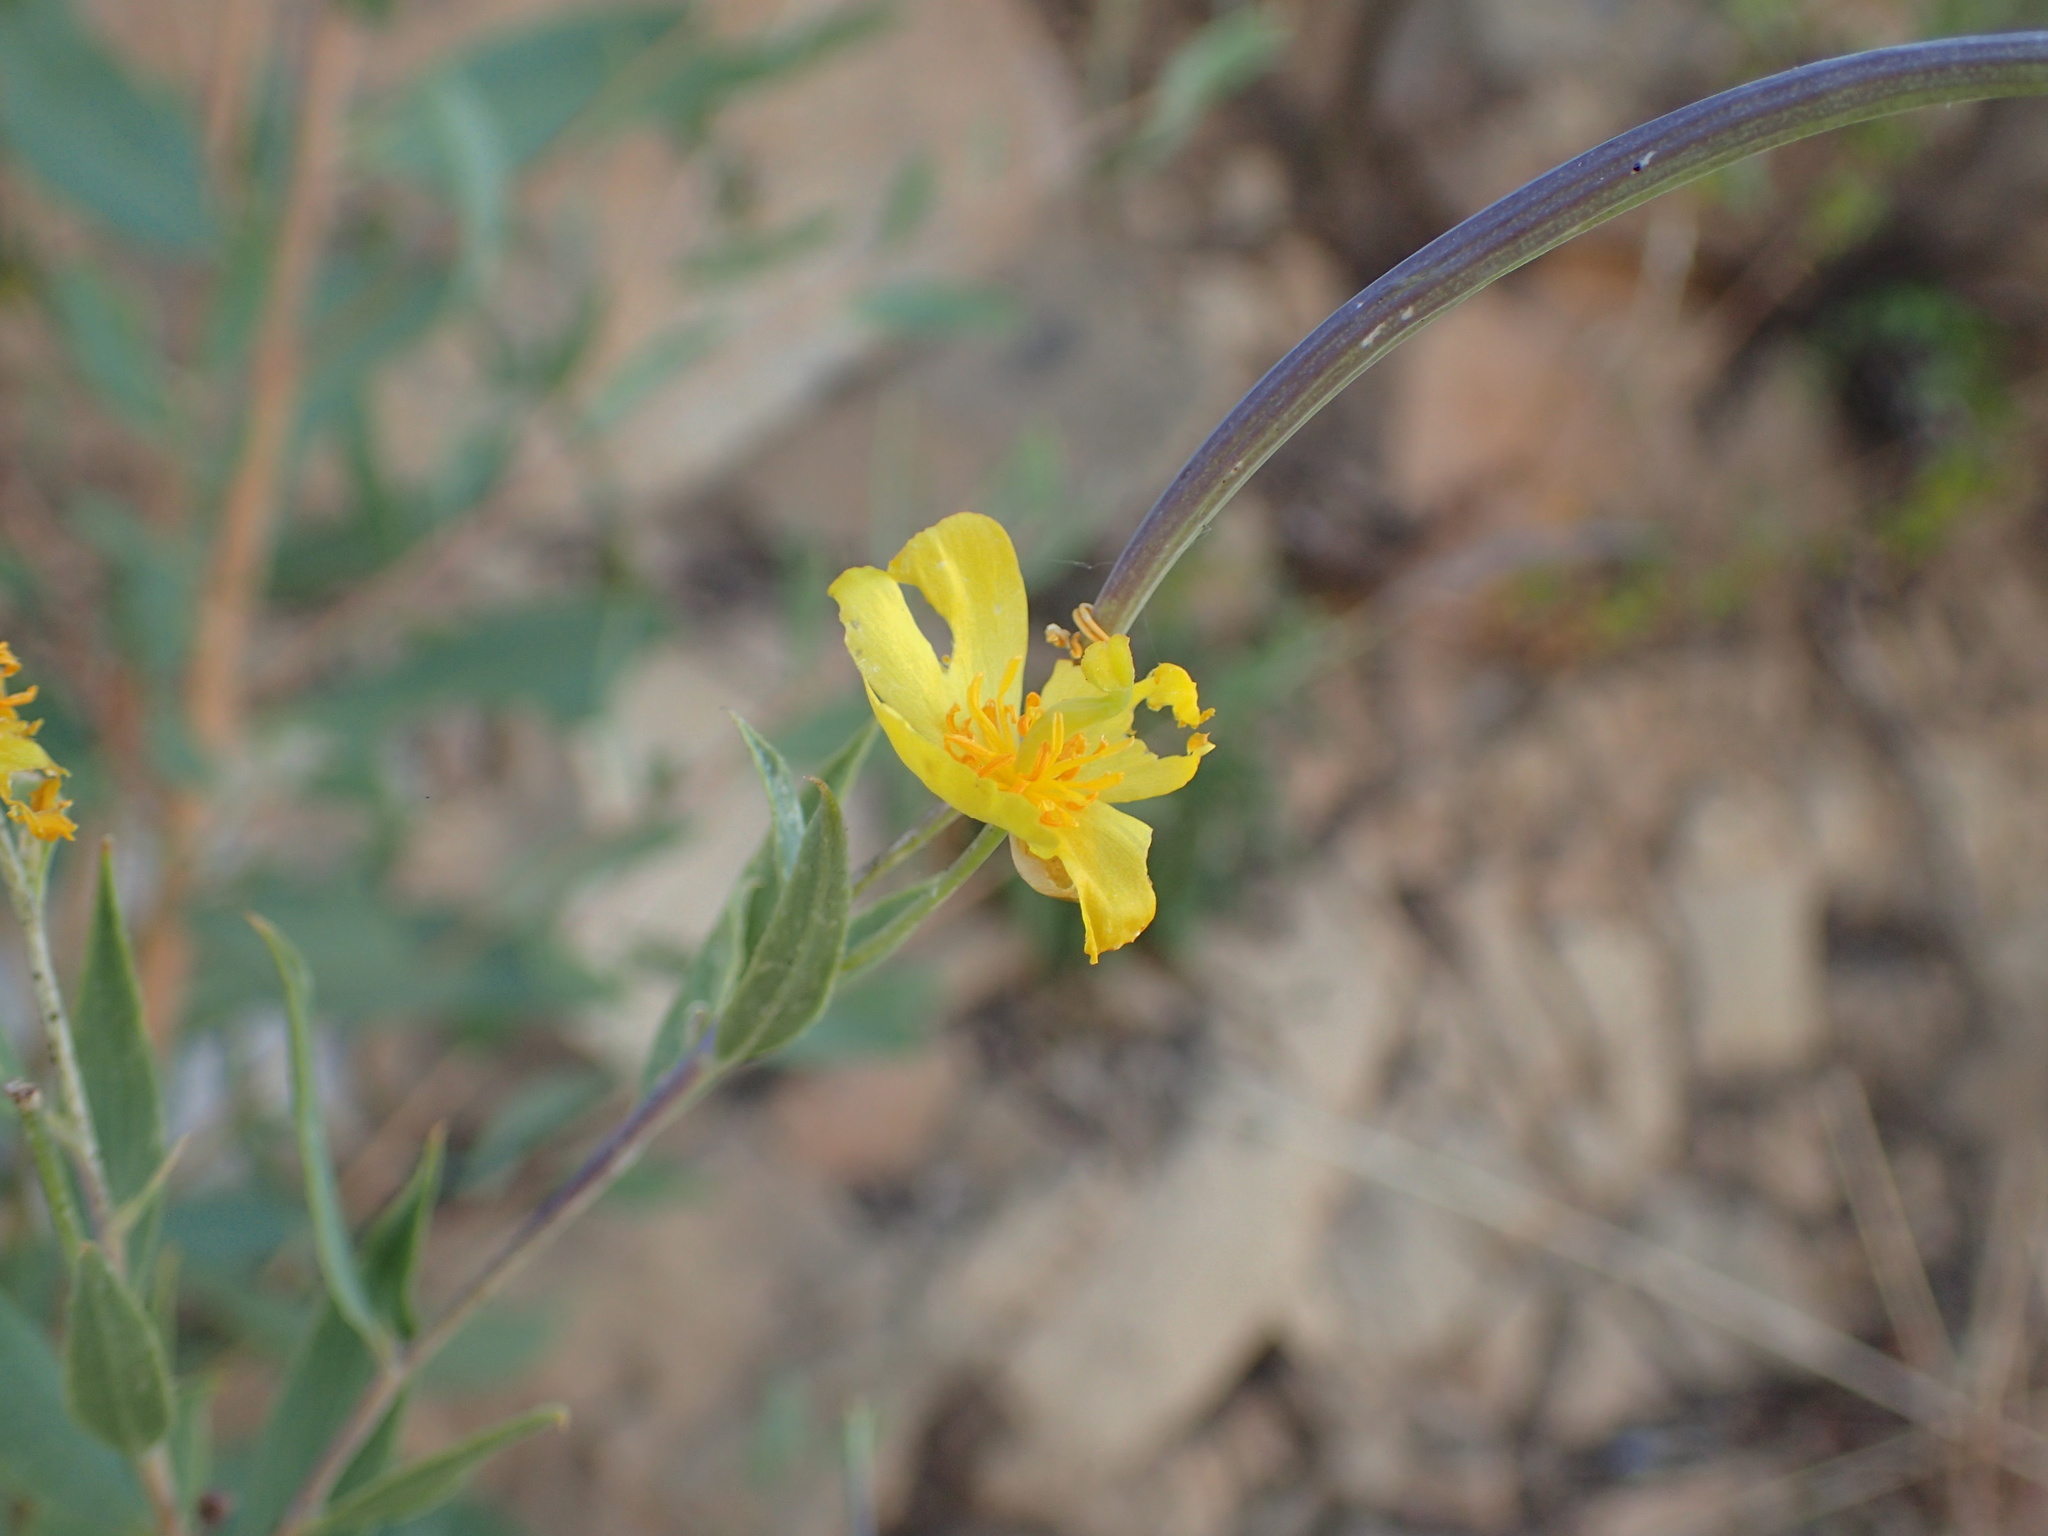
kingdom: Plantae
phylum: Tracheophyta
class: Magnoliopsida
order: Ranunculales
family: Papaveraceae
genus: Dendromecon
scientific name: Dendromecon rigida
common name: Tree poppy
